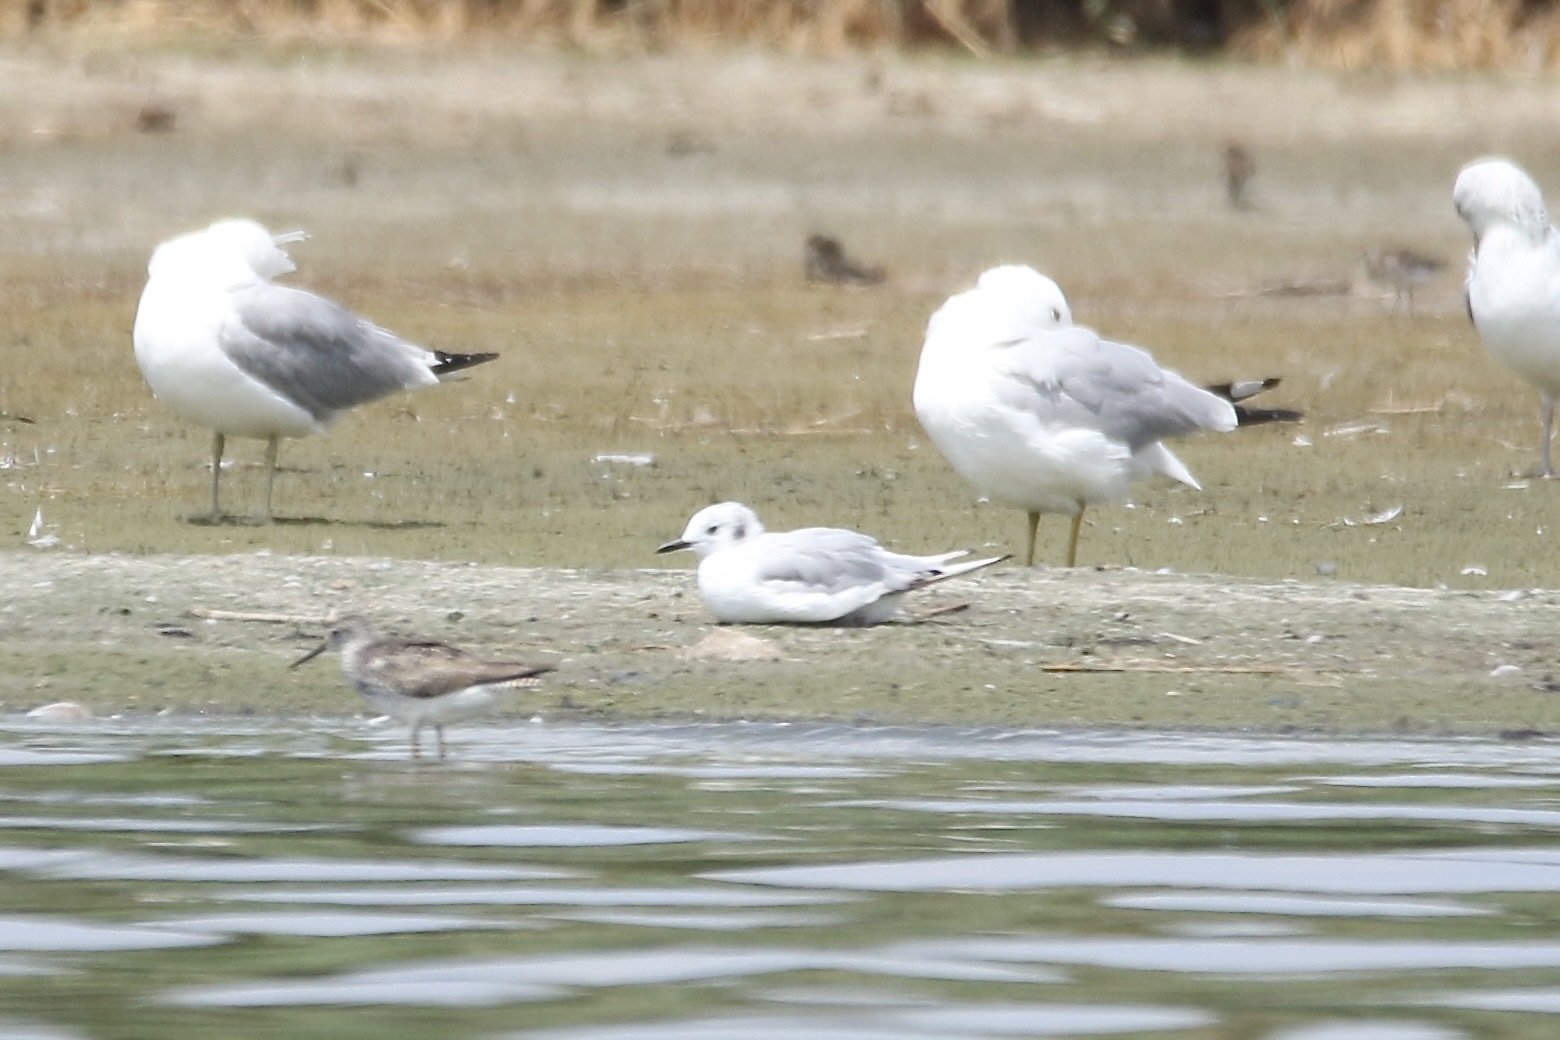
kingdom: Animalia
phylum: Chordata
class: Aves
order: Charadriiformes
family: Laridae
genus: Chroicocephalus
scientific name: Chroicocephalus philadelphia
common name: Bonaparte's gull
